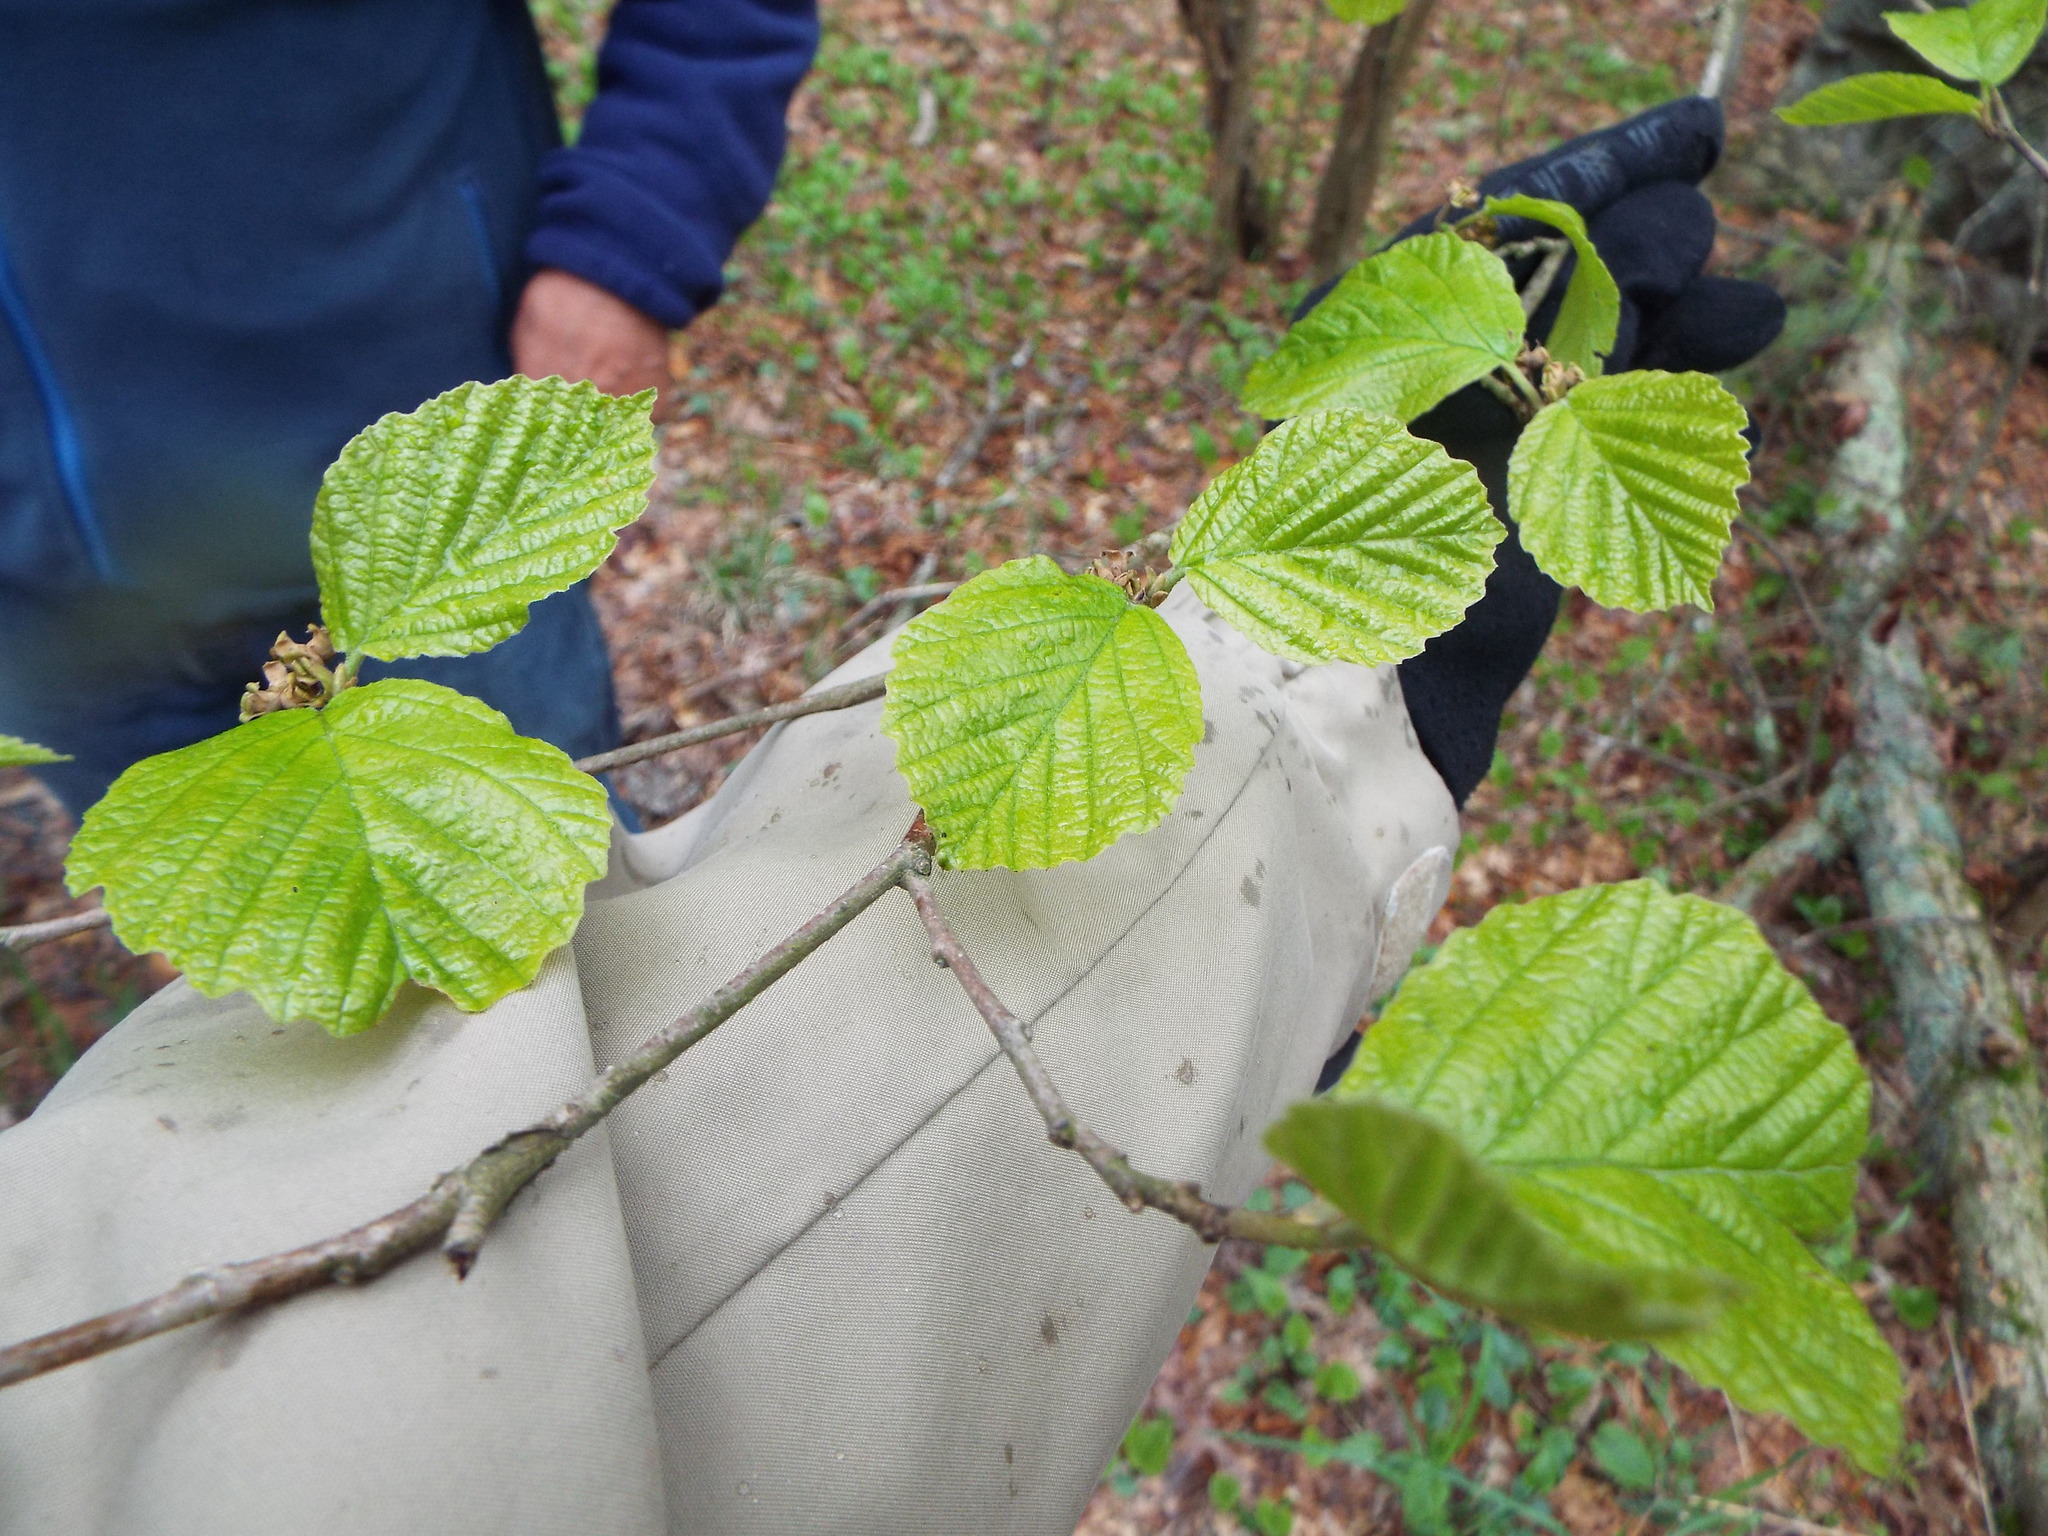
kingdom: Plantae
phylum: Tracheophyta
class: Magnoliopsida
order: Saxifragales
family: Hamamelidaceae
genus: Hamamelis
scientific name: Hamamelis virginiana
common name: Witch-hazel
